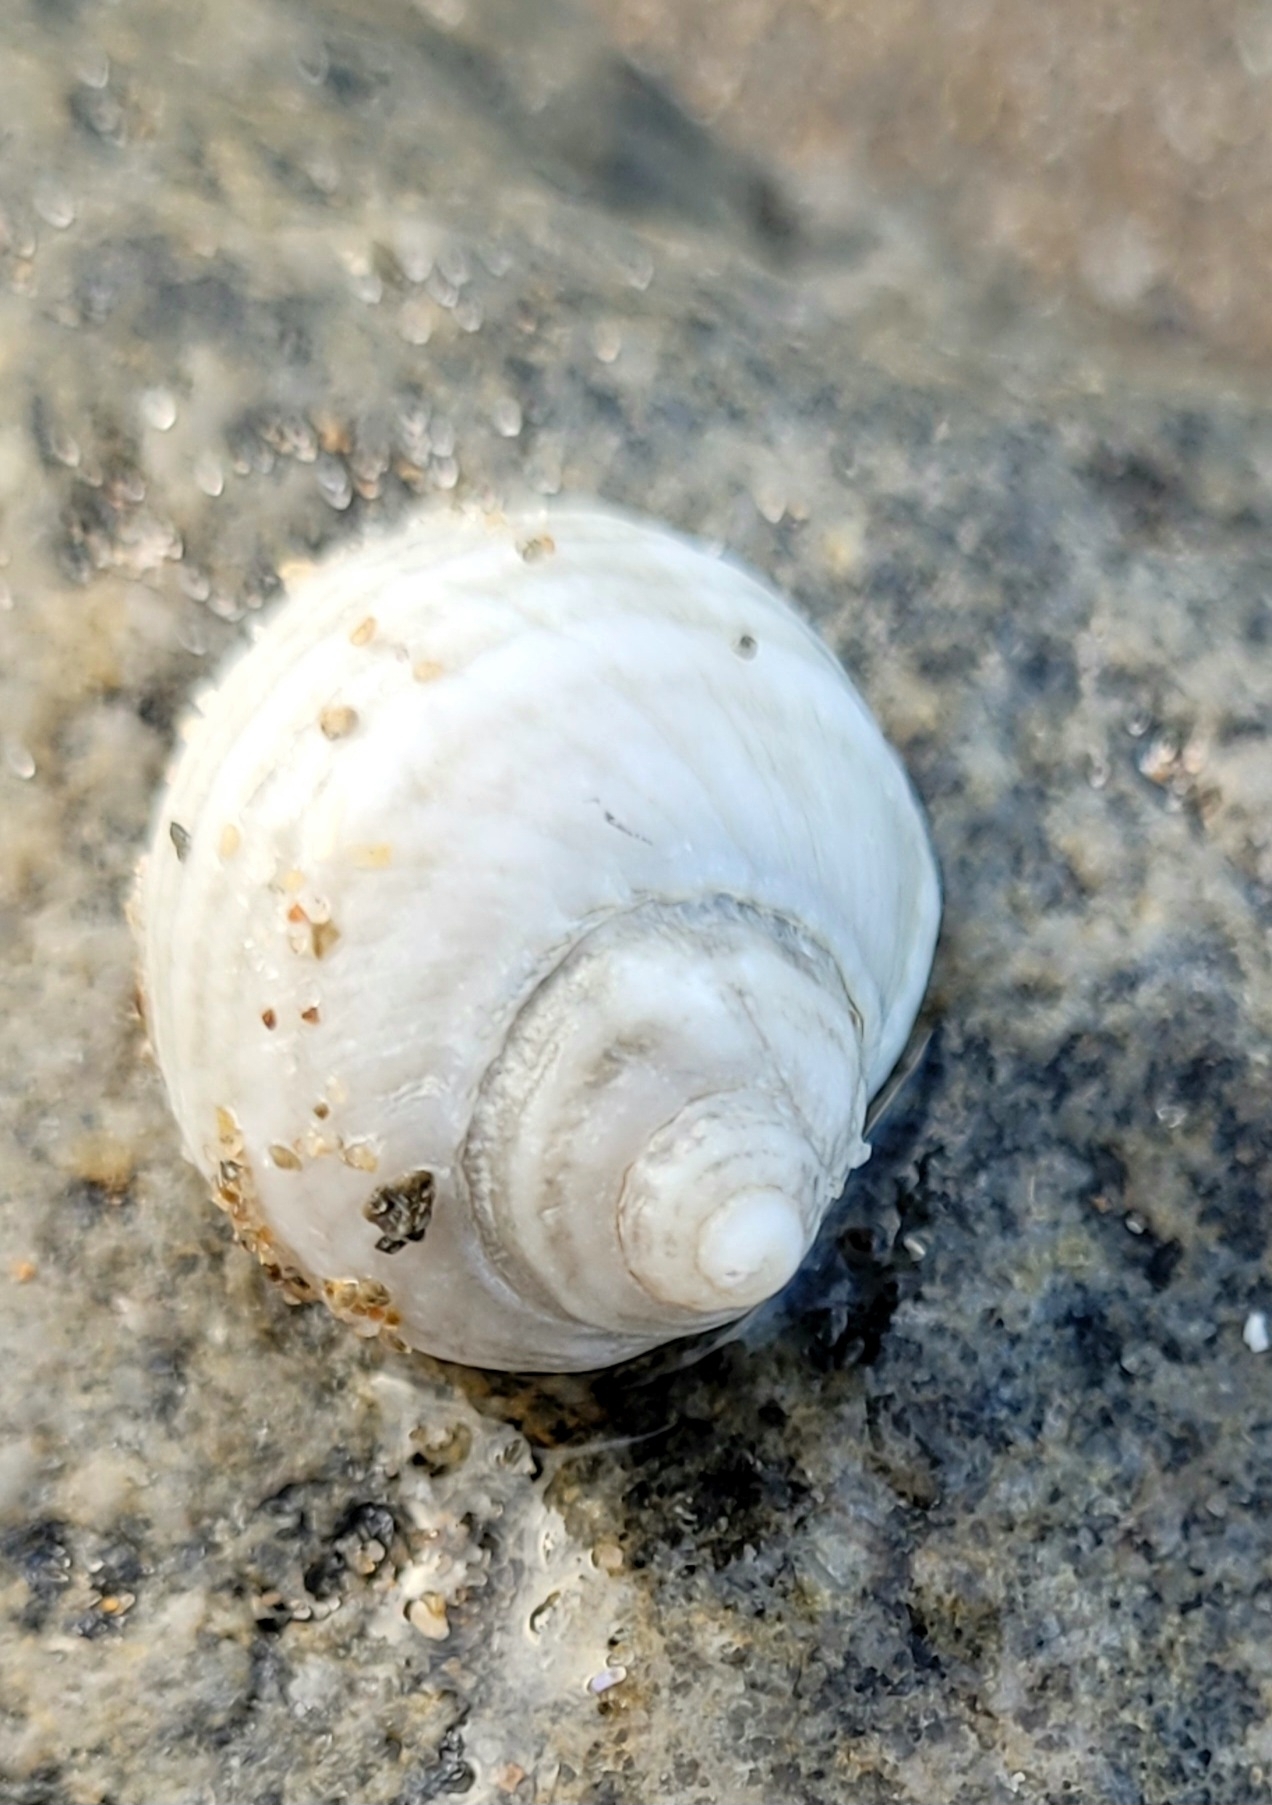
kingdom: Animalia
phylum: Mollusca
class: Gastropoda
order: Neogastropoda
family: Muricidae
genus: Nucella
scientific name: Nucella lapillus
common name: Dog whelk
